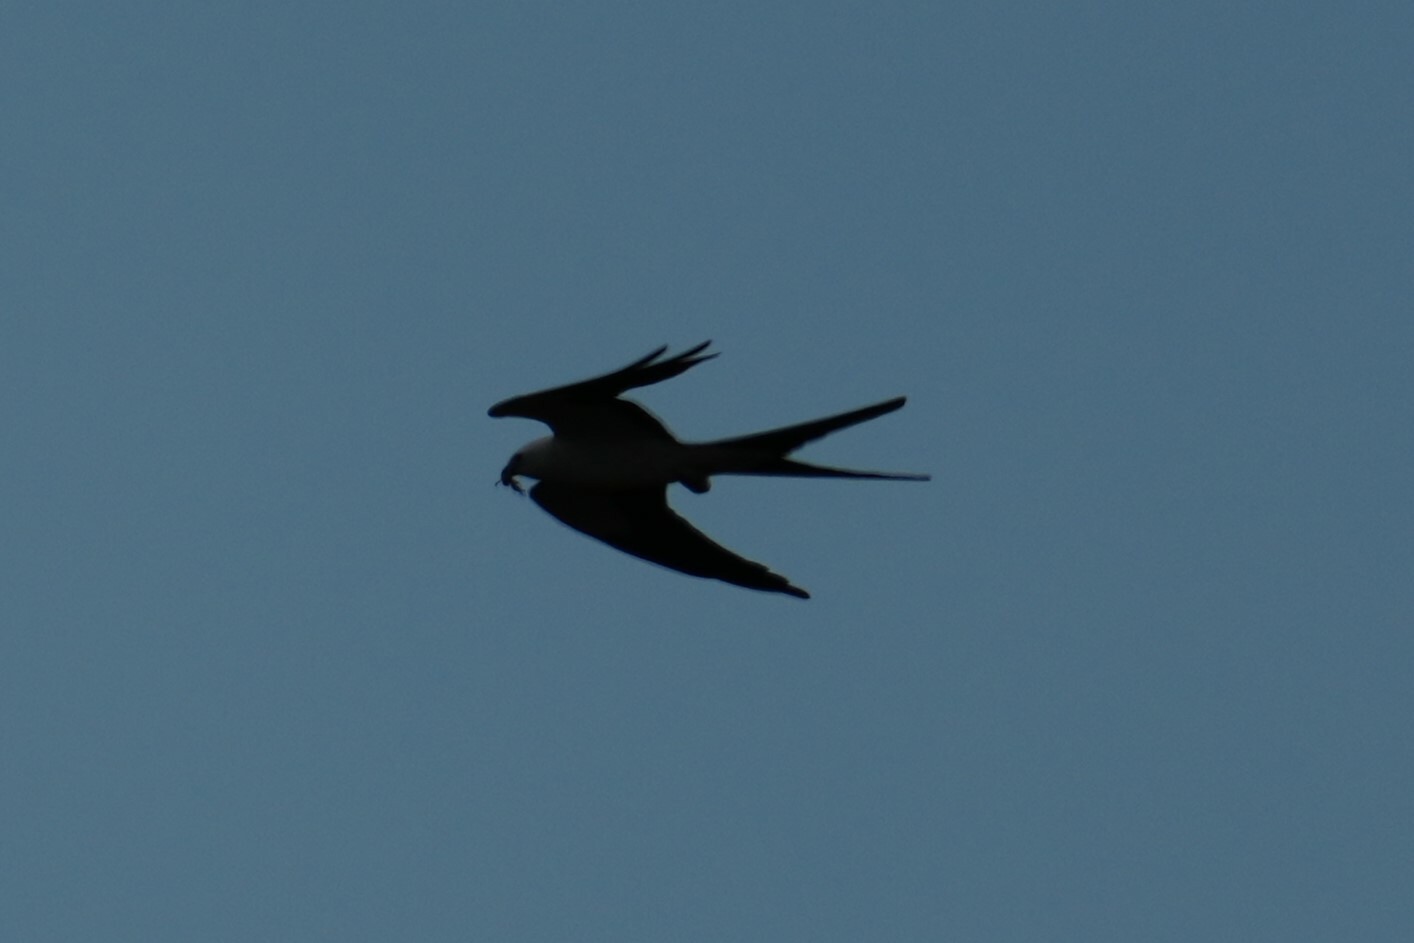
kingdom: Animalia
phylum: Chordata
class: Aves
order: Accipitriformes
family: Accipitridae
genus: Elanoides
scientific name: Elanoides forficatus
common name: Swallow-tailed kite
